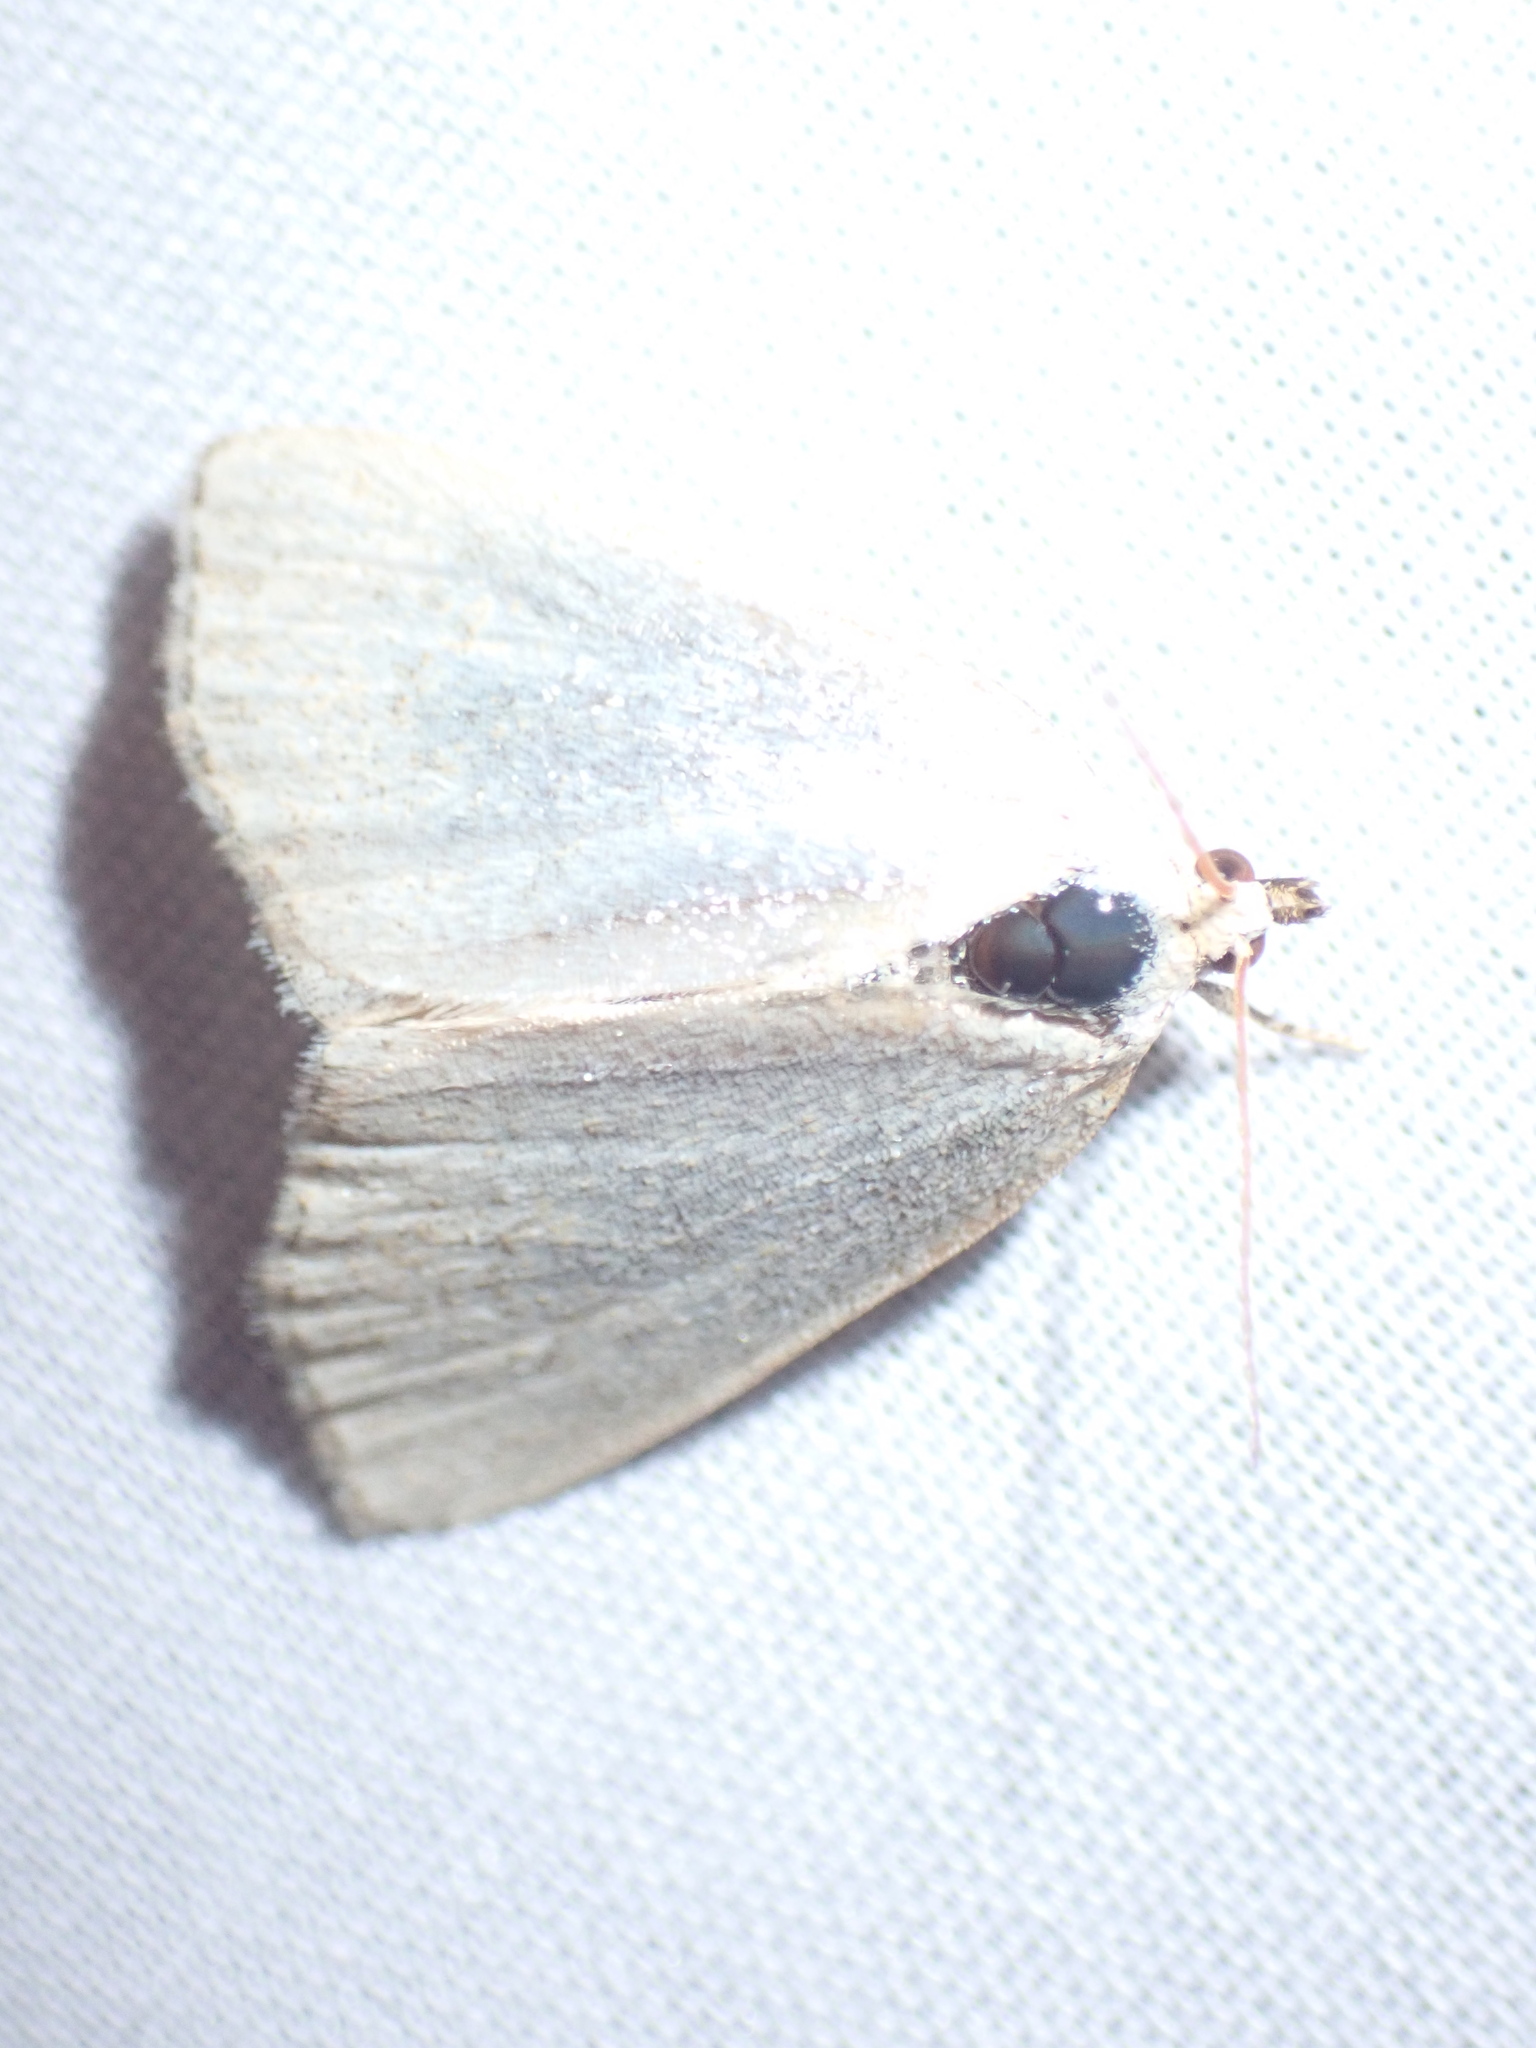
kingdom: Animalia
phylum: Arthropoda
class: Insecta
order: Lepidoptera
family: Noctuidae
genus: Protodeltote
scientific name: Protodeltote albidula
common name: Pale glyph
